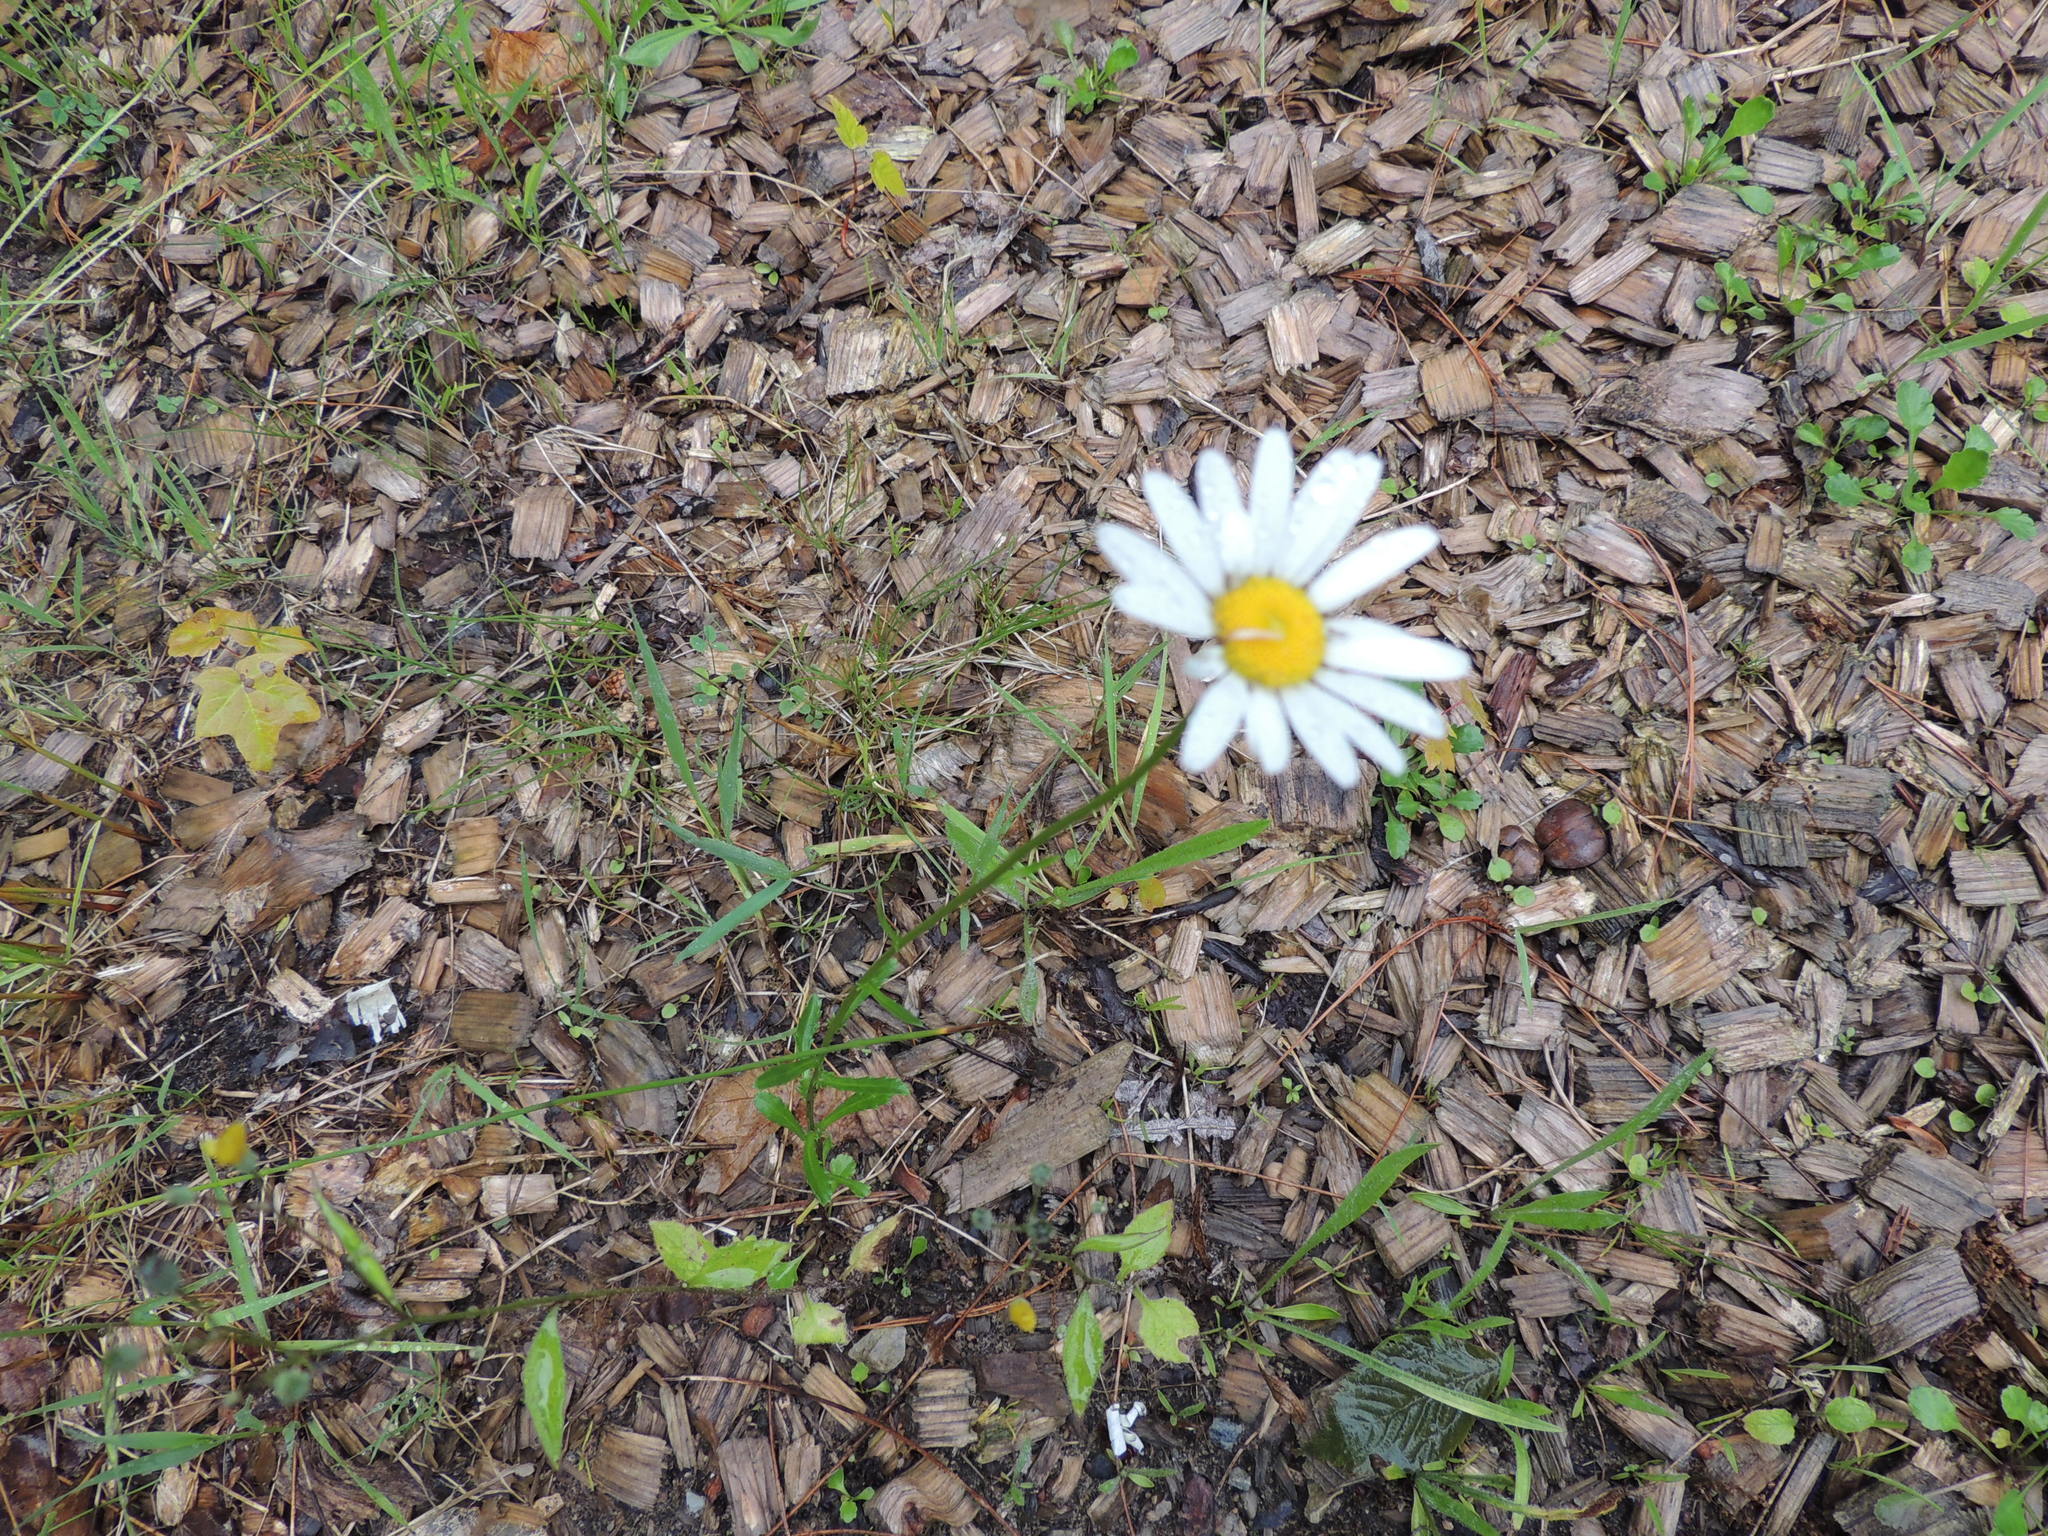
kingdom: Plantae
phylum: Tracheophyta
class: Magnoliopsida
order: Asterales
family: Asteraceae
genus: Leucanthemum
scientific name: Leucanthemum vulgare
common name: Oxeye daisy
